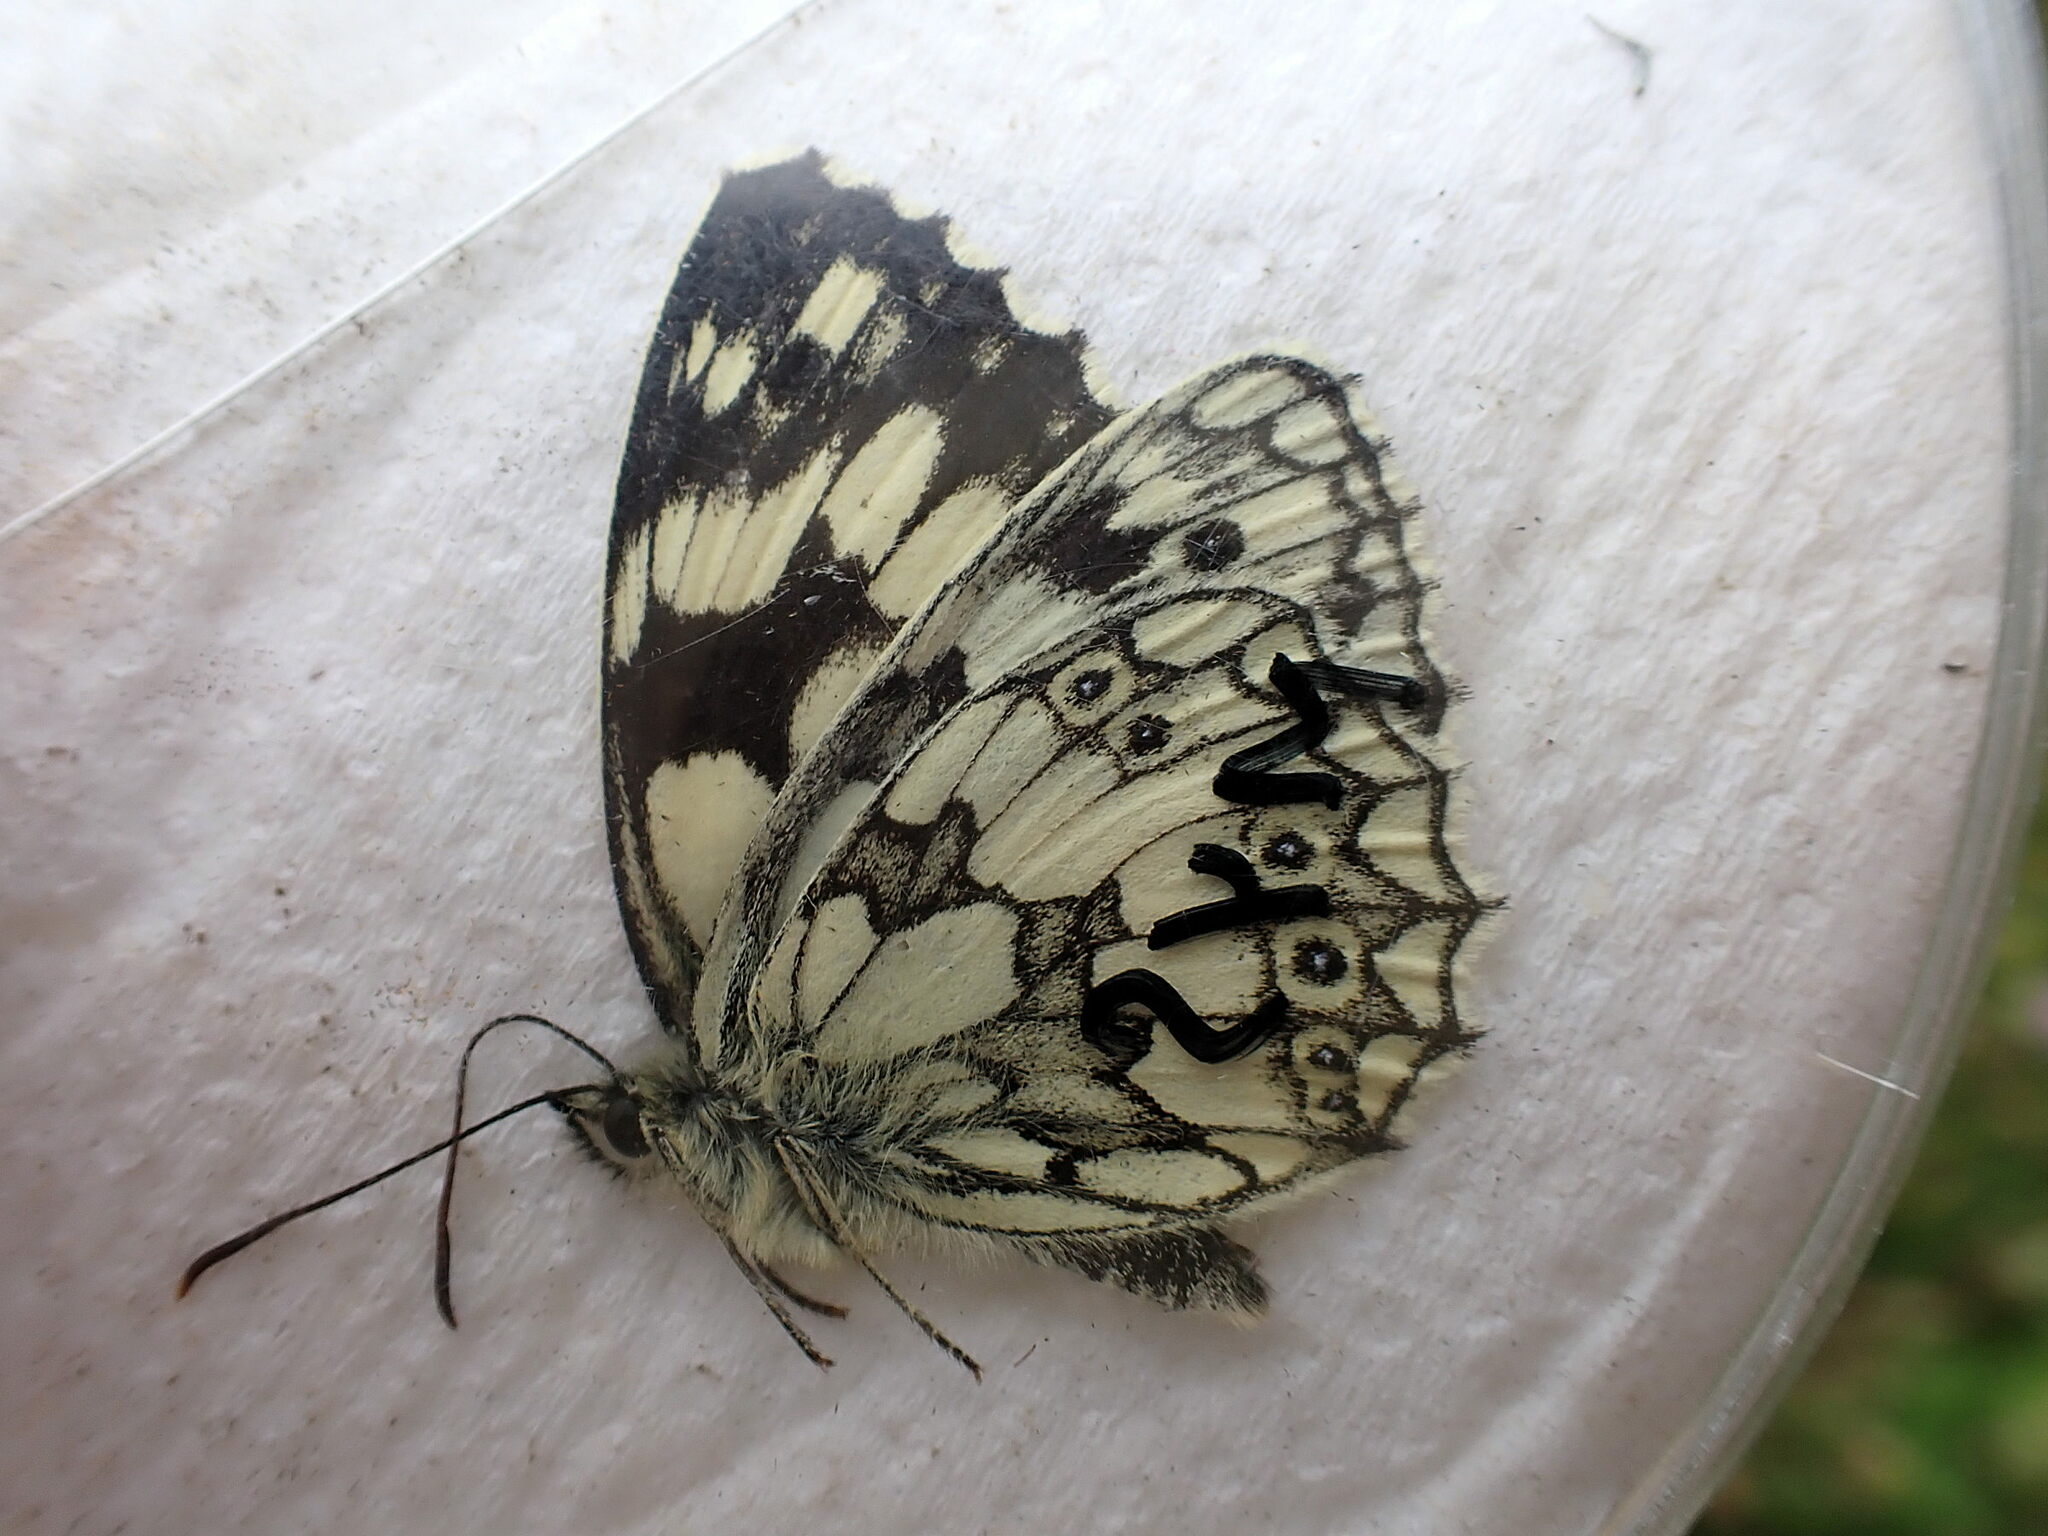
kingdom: Animalia
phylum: Arthropoda
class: Insecta
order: Lepidoptera
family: Nymphalidae
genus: Melanargia
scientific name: Melanargia galathea
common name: Marbled white
